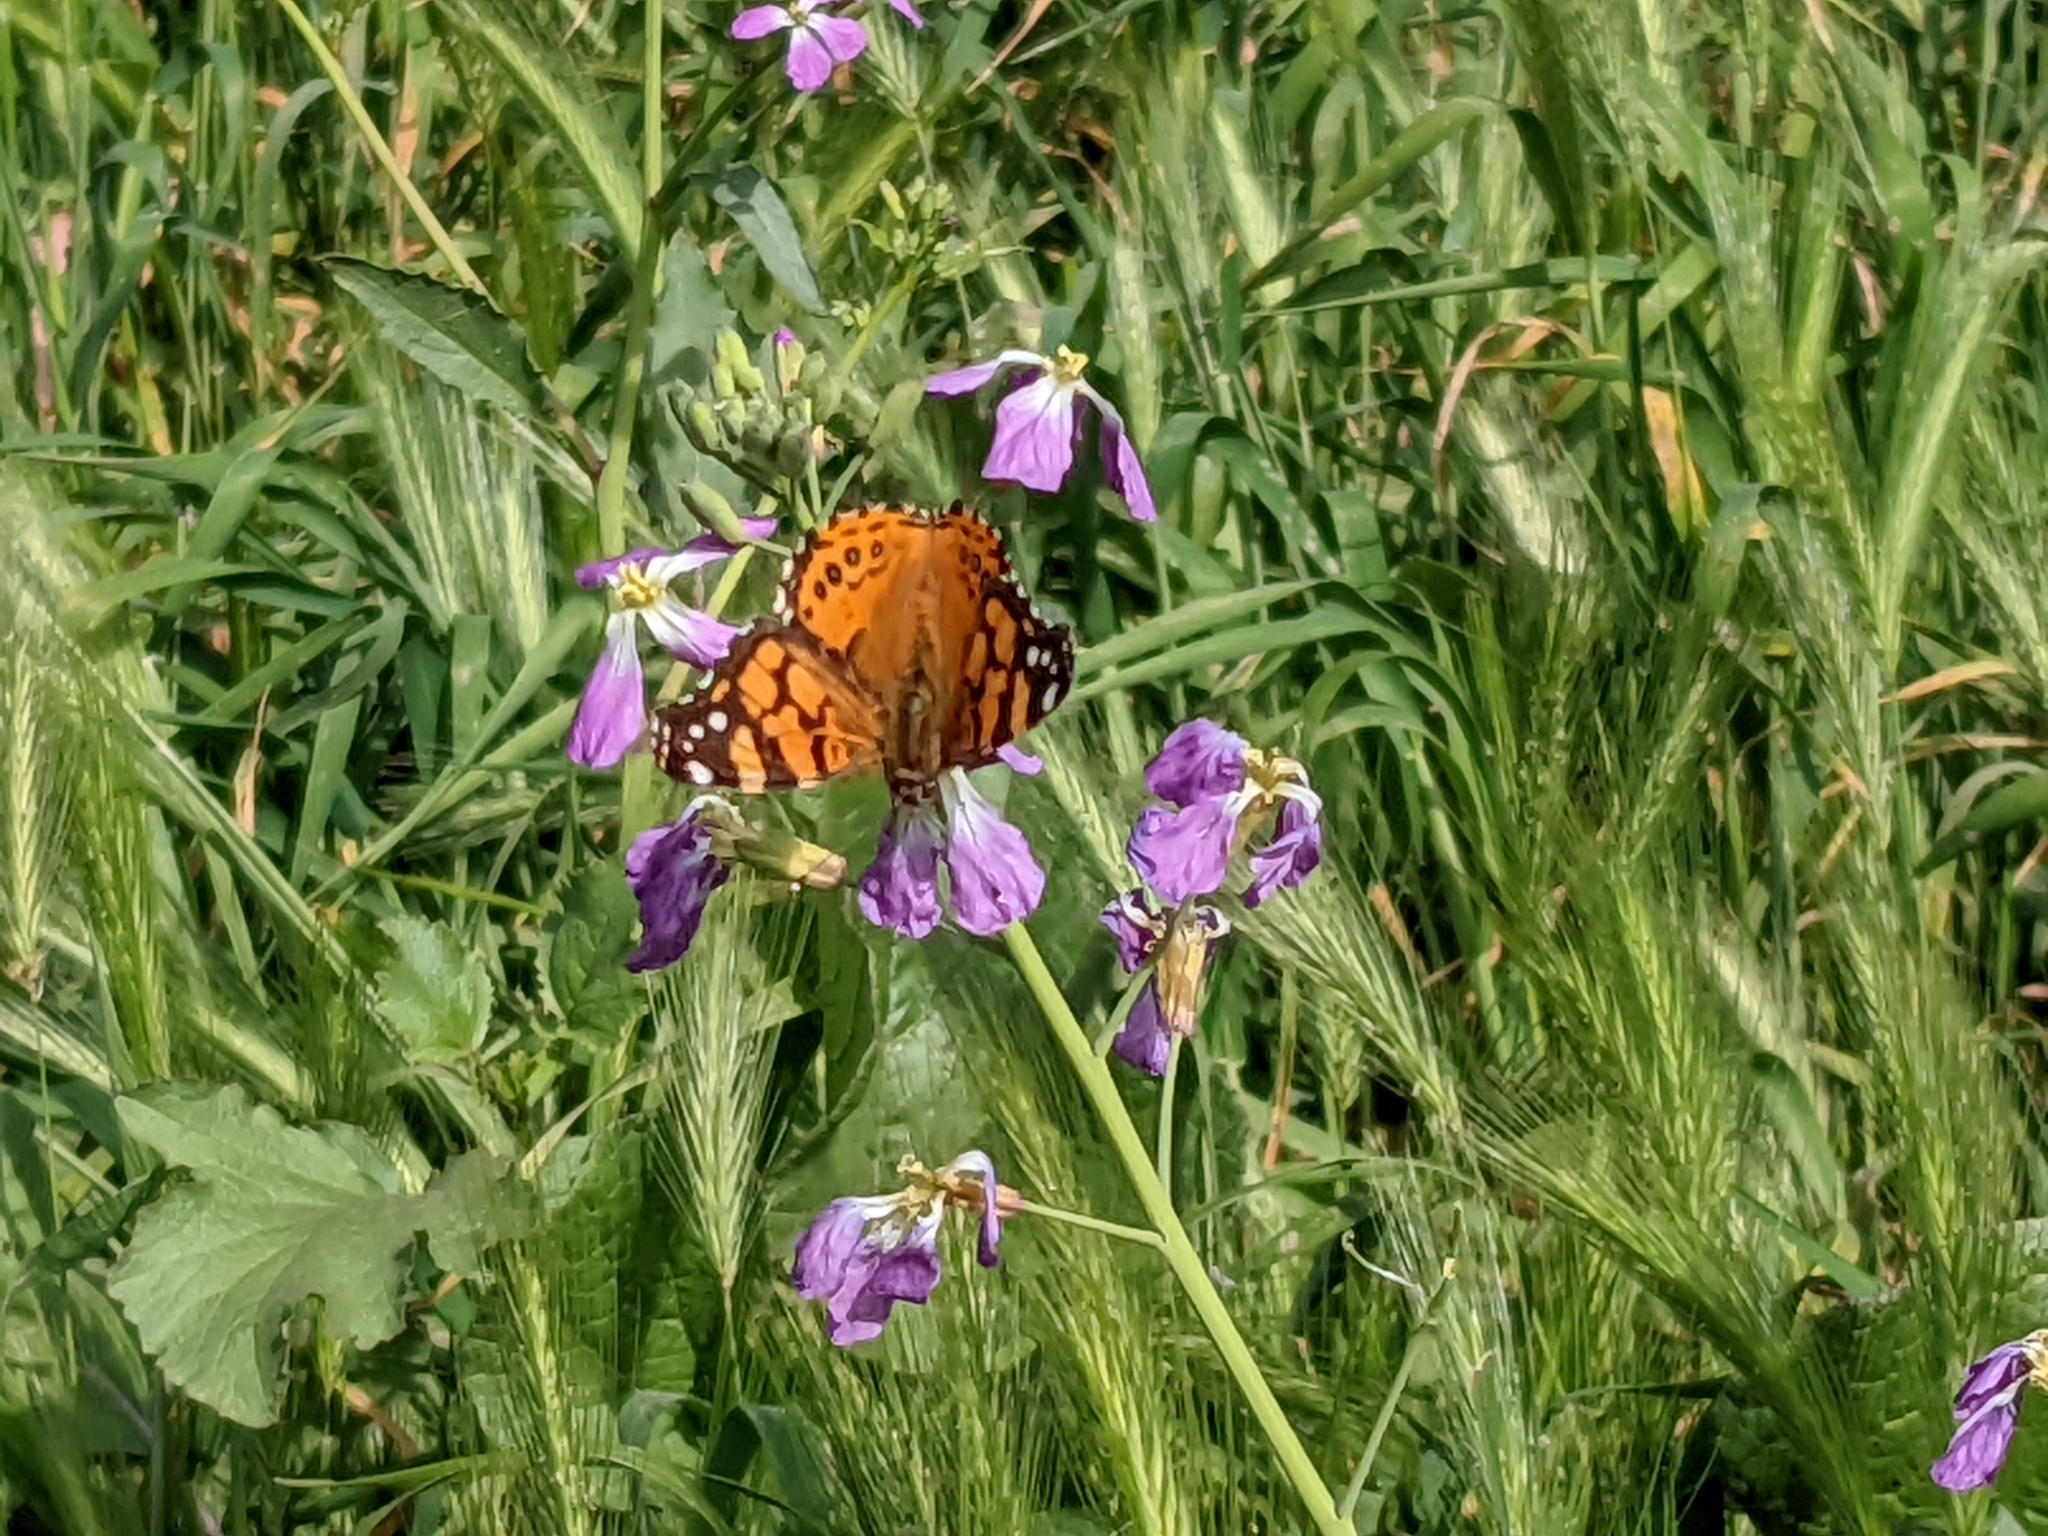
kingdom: Animalia
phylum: Arthropoda
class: Insecta
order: Lepidoptera
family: Nymphalidae
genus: Vanessa
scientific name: Vanessa annabella
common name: West coast lady
